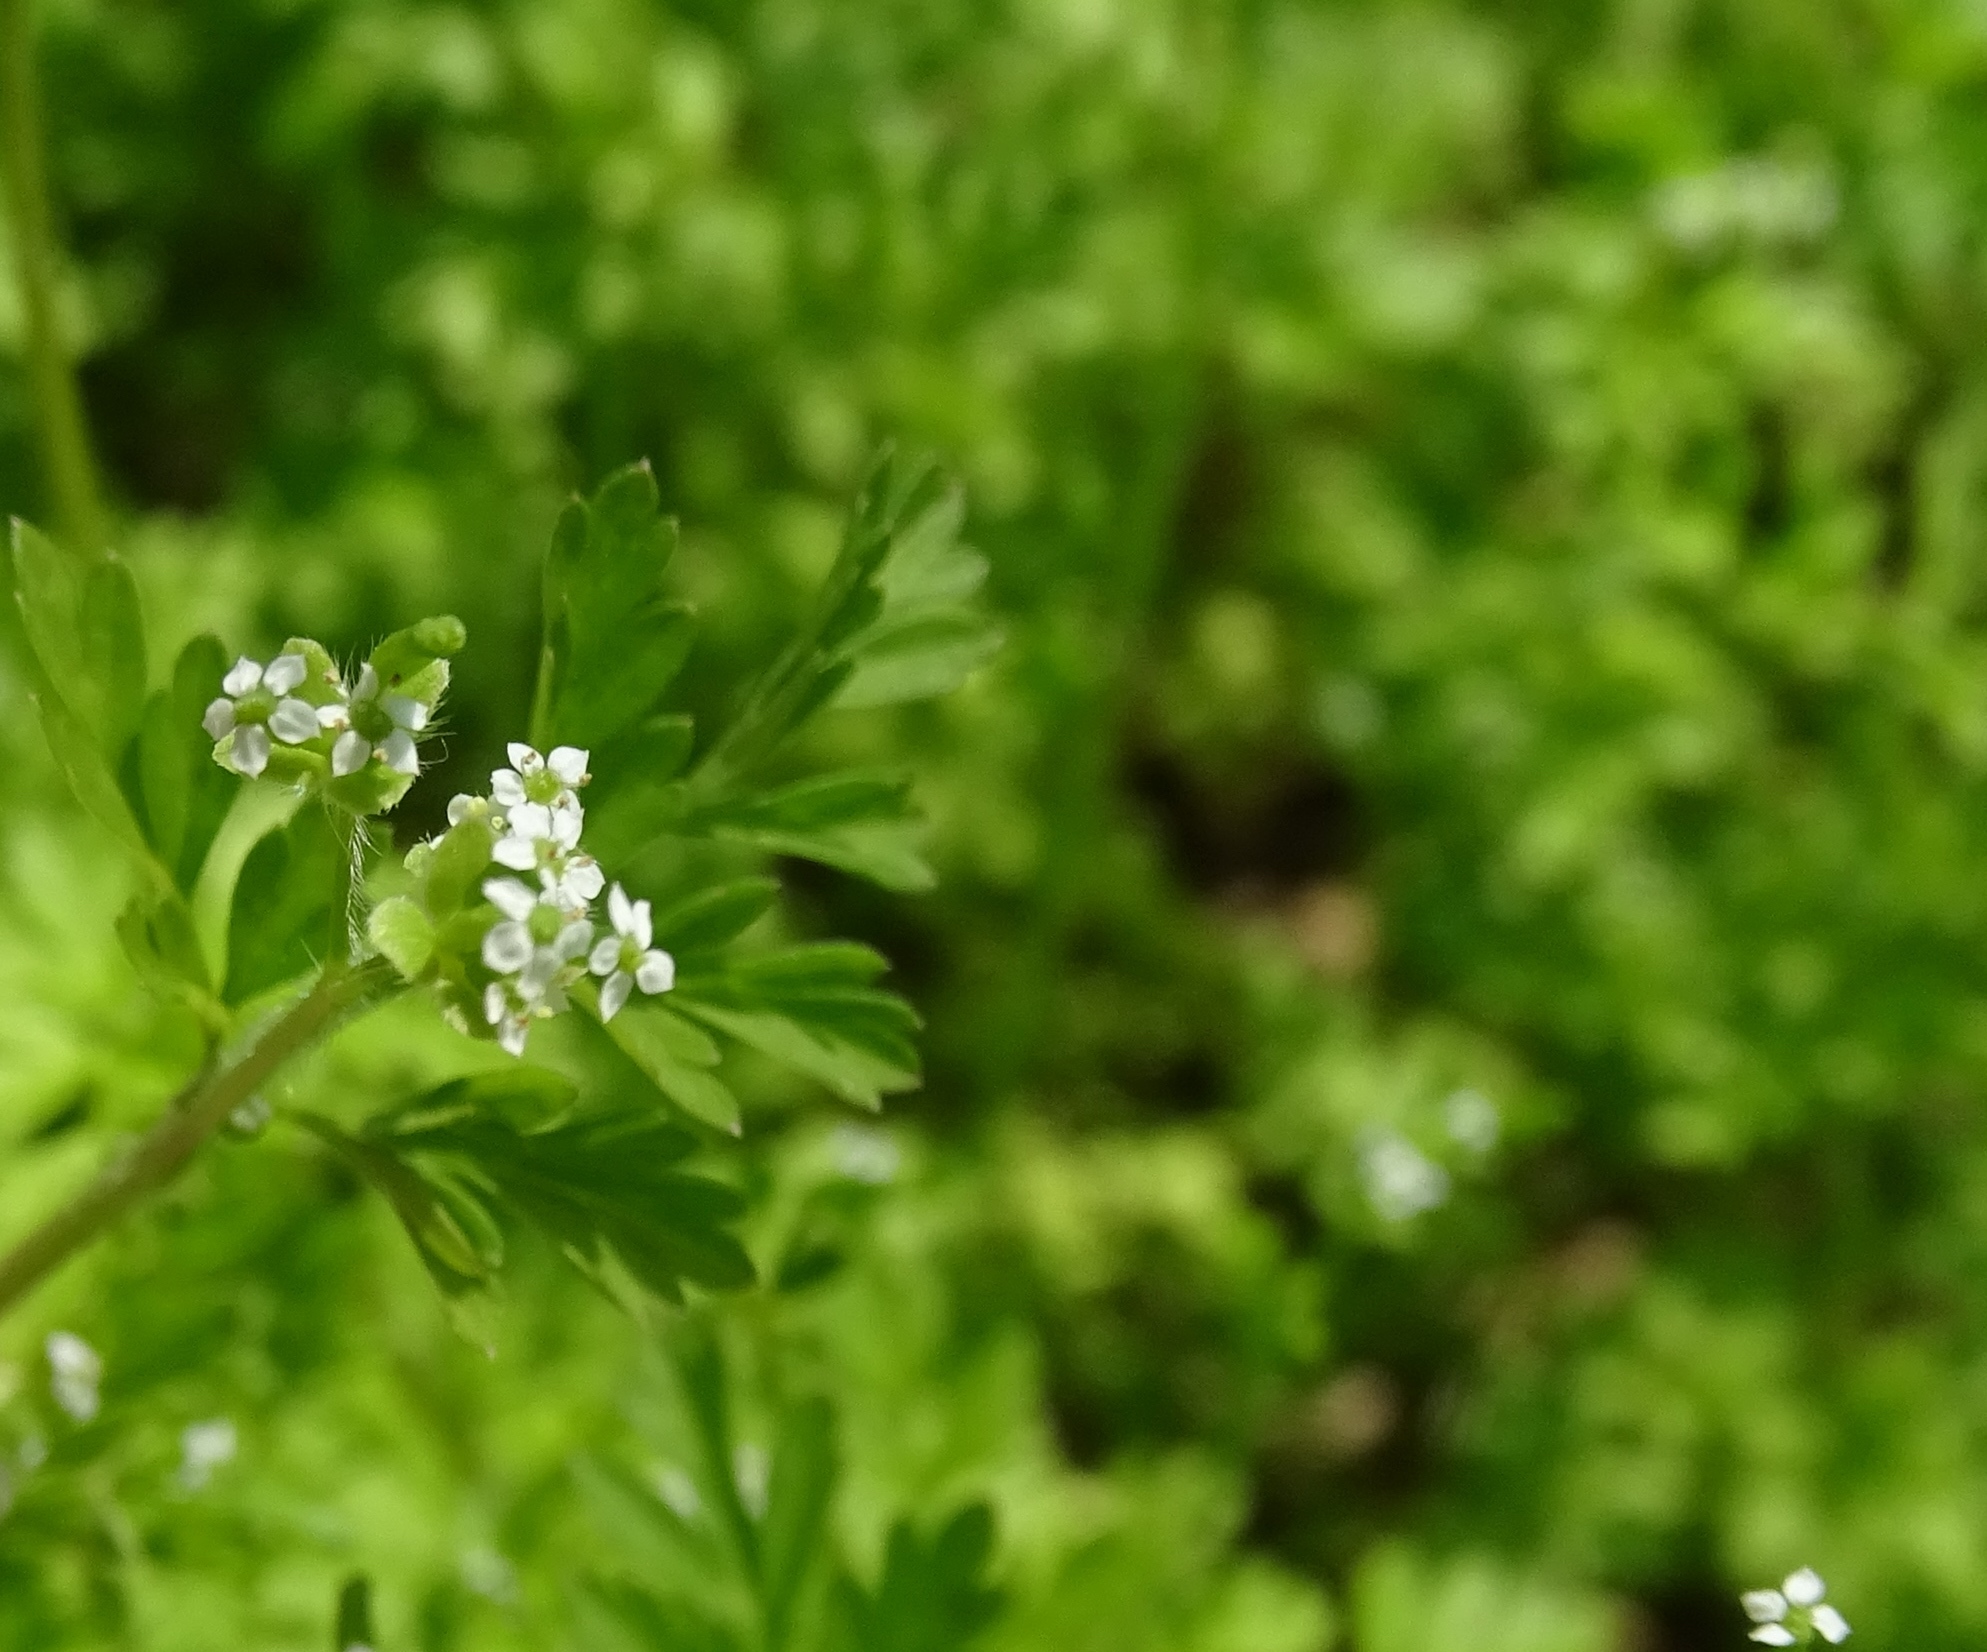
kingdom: Plantae
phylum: Tracheophyta
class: Magnoliopsida
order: Apiales
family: Apiaceae
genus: Chaerophyllum
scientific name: Chaerophyllum tainturieri
